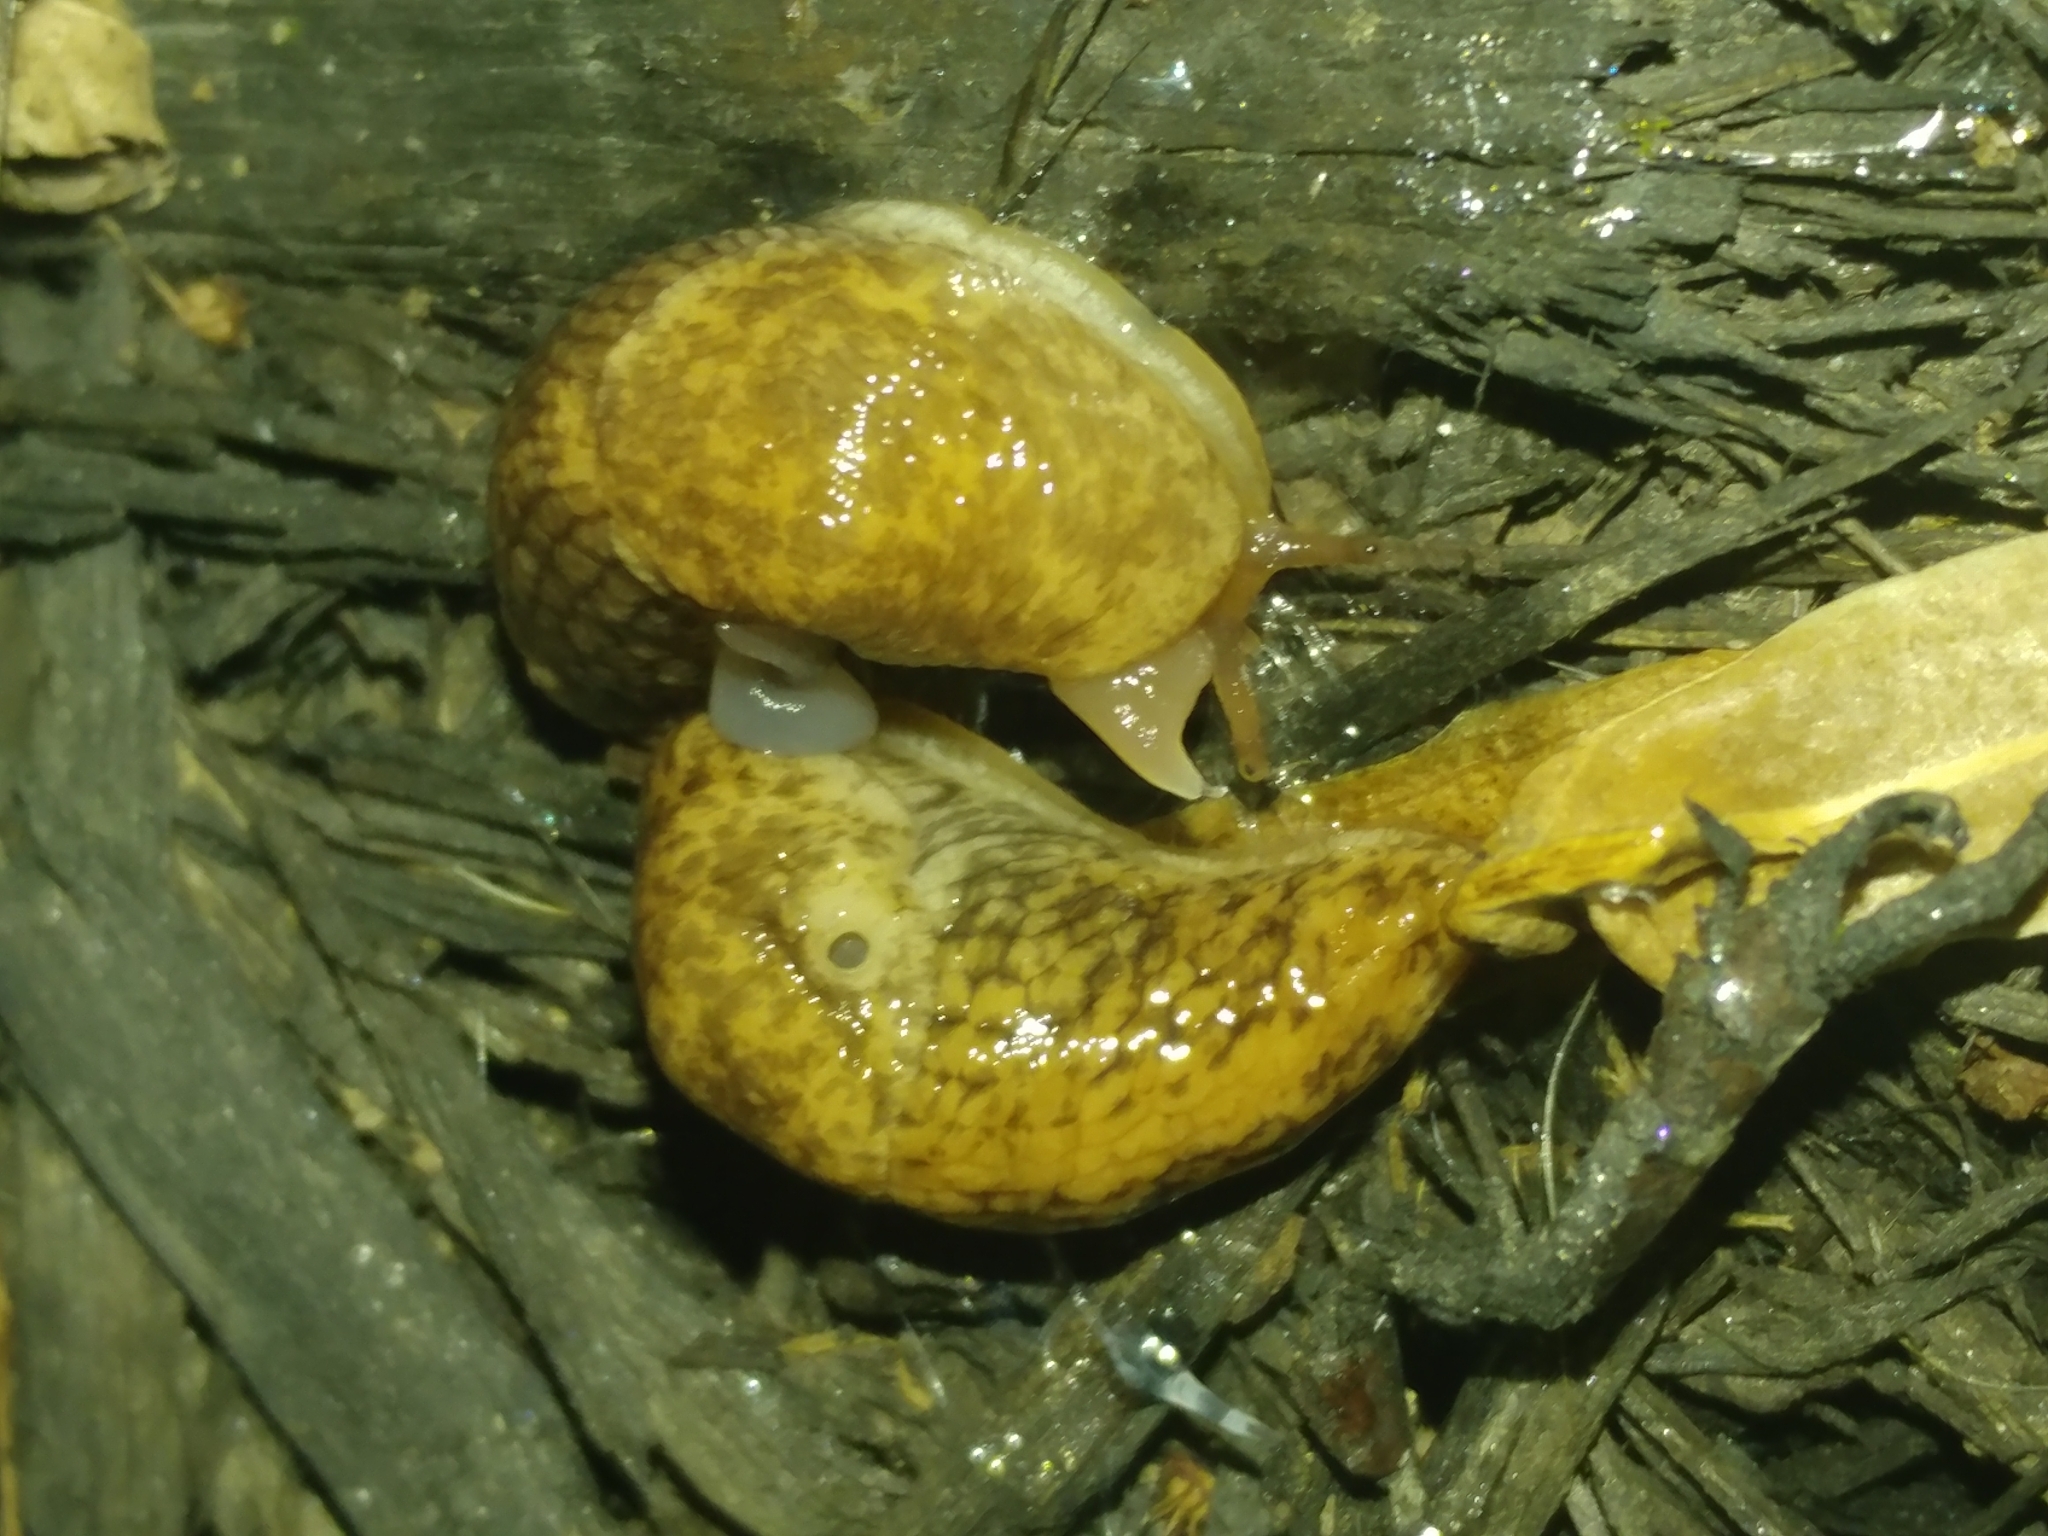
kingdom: Animalia
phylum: Mollusca
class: Gastropoda
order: Stylommatophora
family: Agriolimacidae
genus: Deroceras
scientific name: Deroceras reticulatum
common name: Gray field slug
